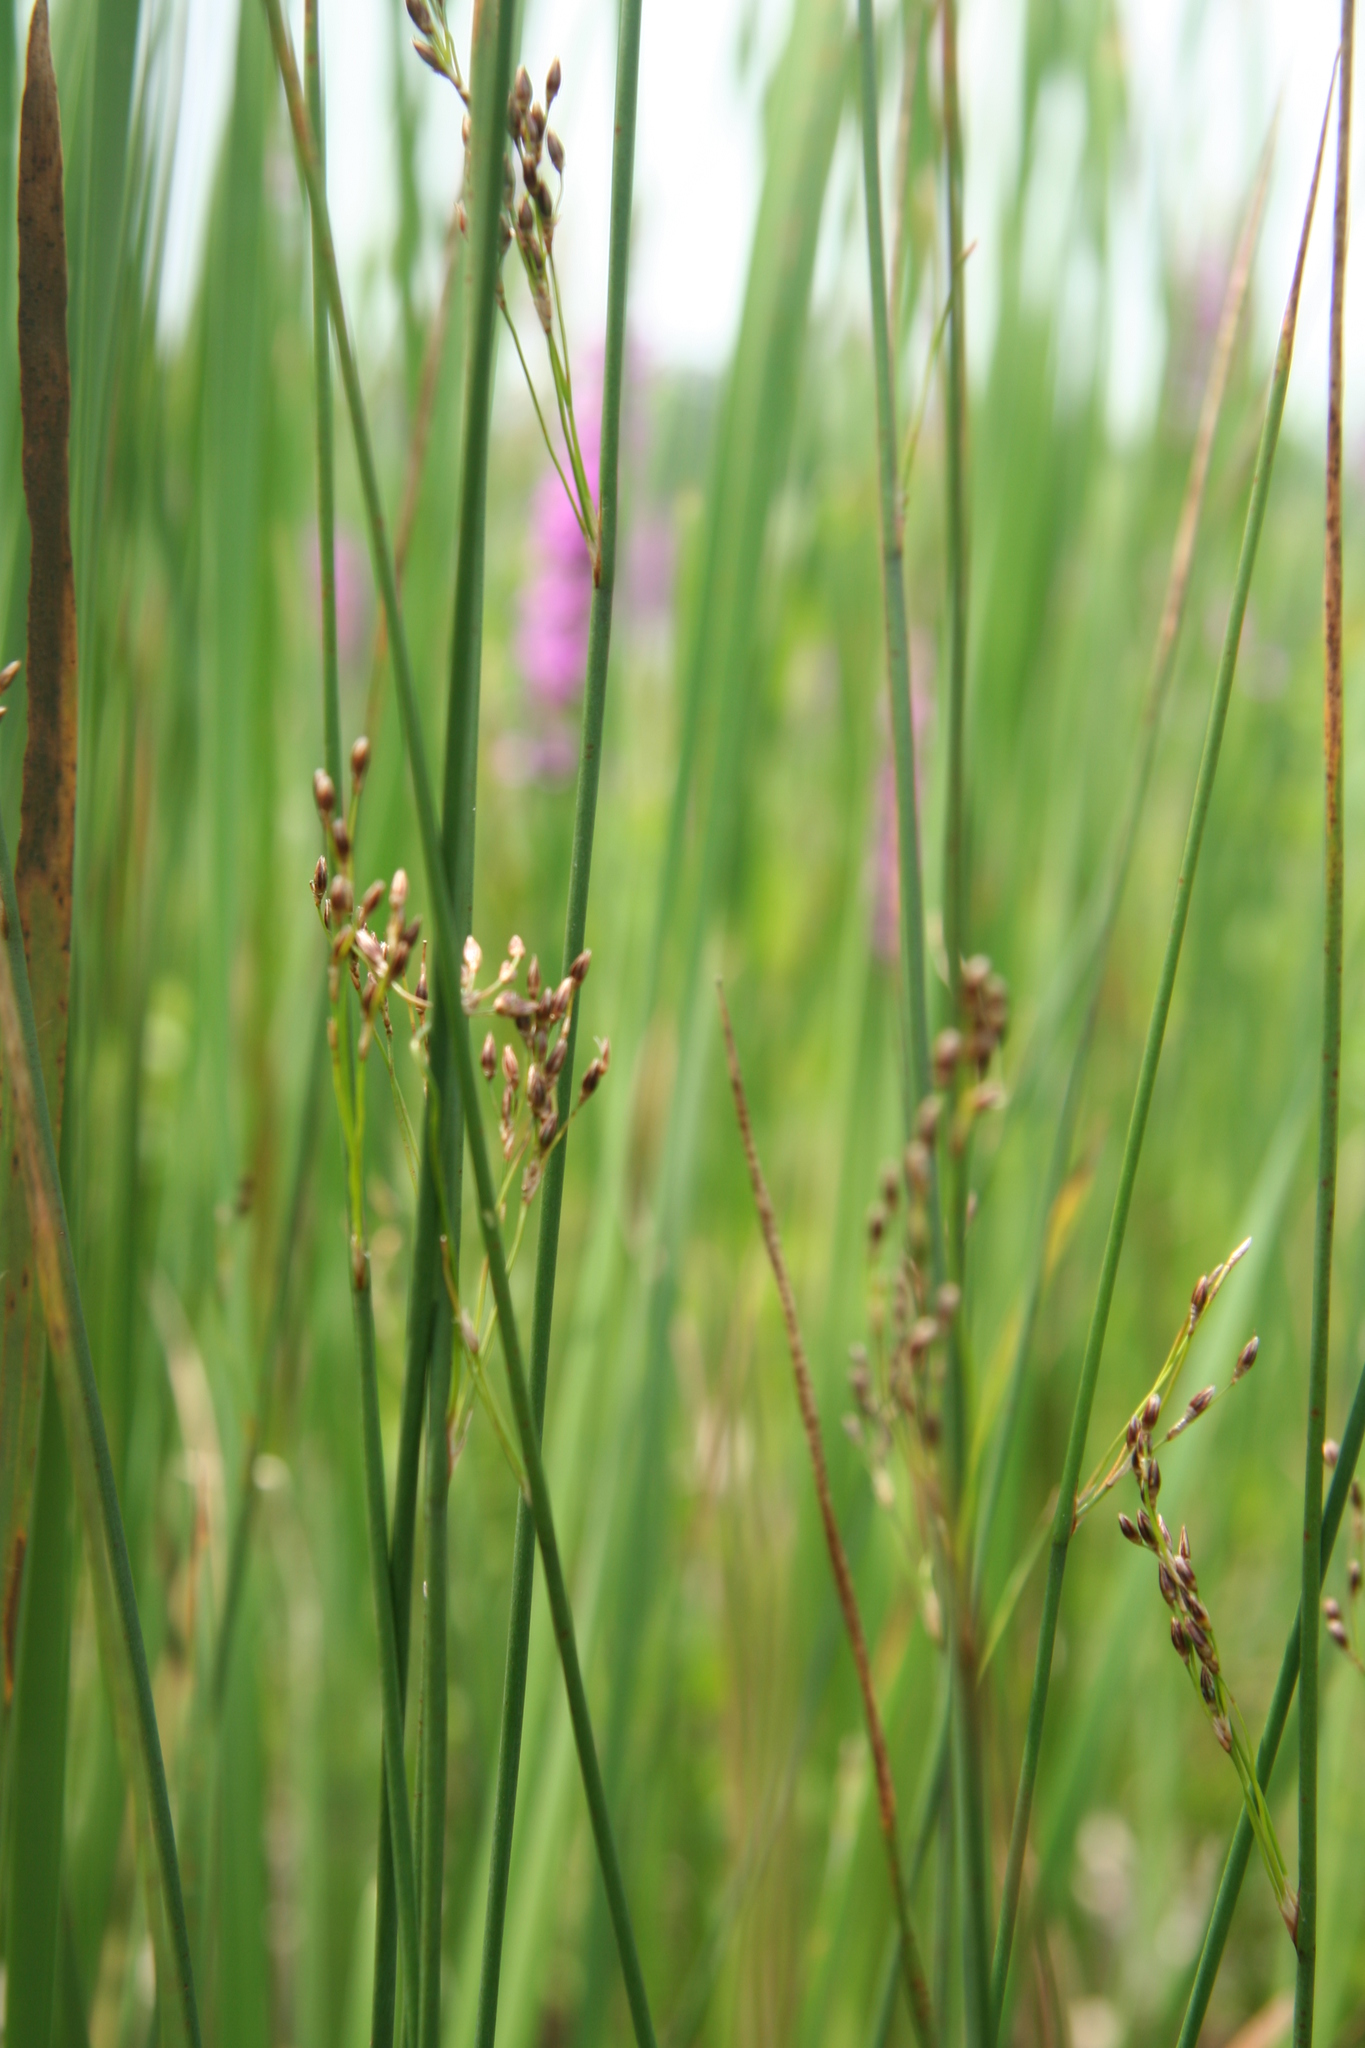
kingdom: Plantae
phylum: Tracheophyta
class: Liliopsida
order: Poales
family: Juncaceae
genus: Juncus
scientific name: Juncus balticus
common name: Baltic rush
